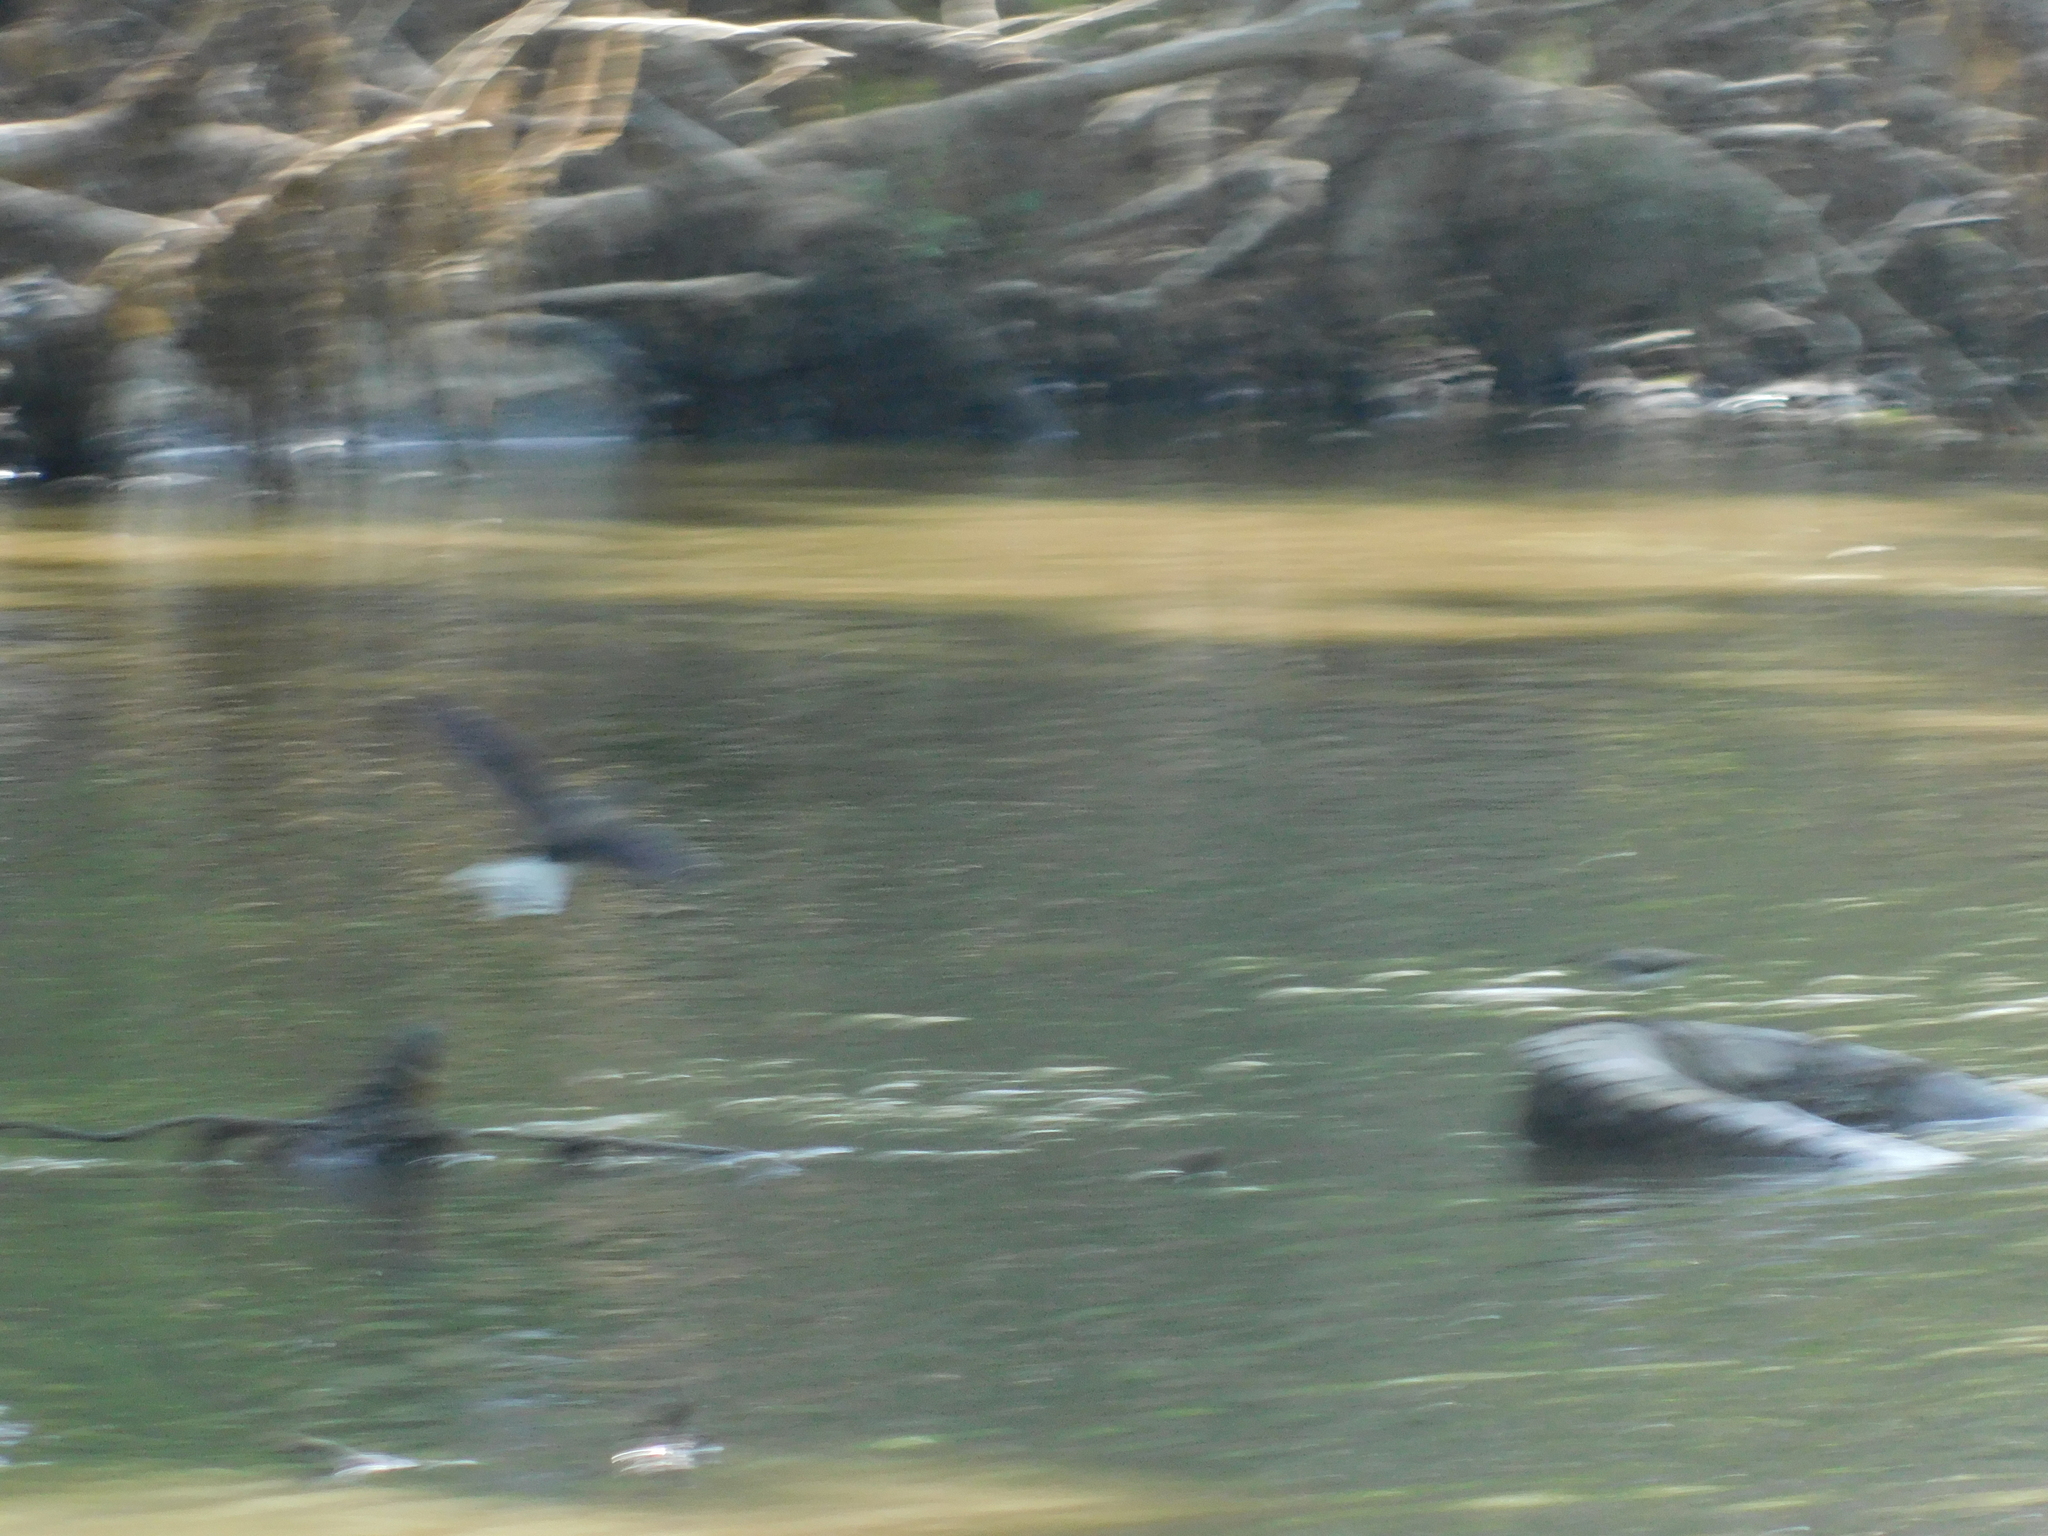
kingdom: Animalia
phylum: Chordata
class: Aves
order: Charadriiformes
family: Scolopacidae
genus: Tringa
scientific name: Tringa ochropus
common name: Green sandpiper
